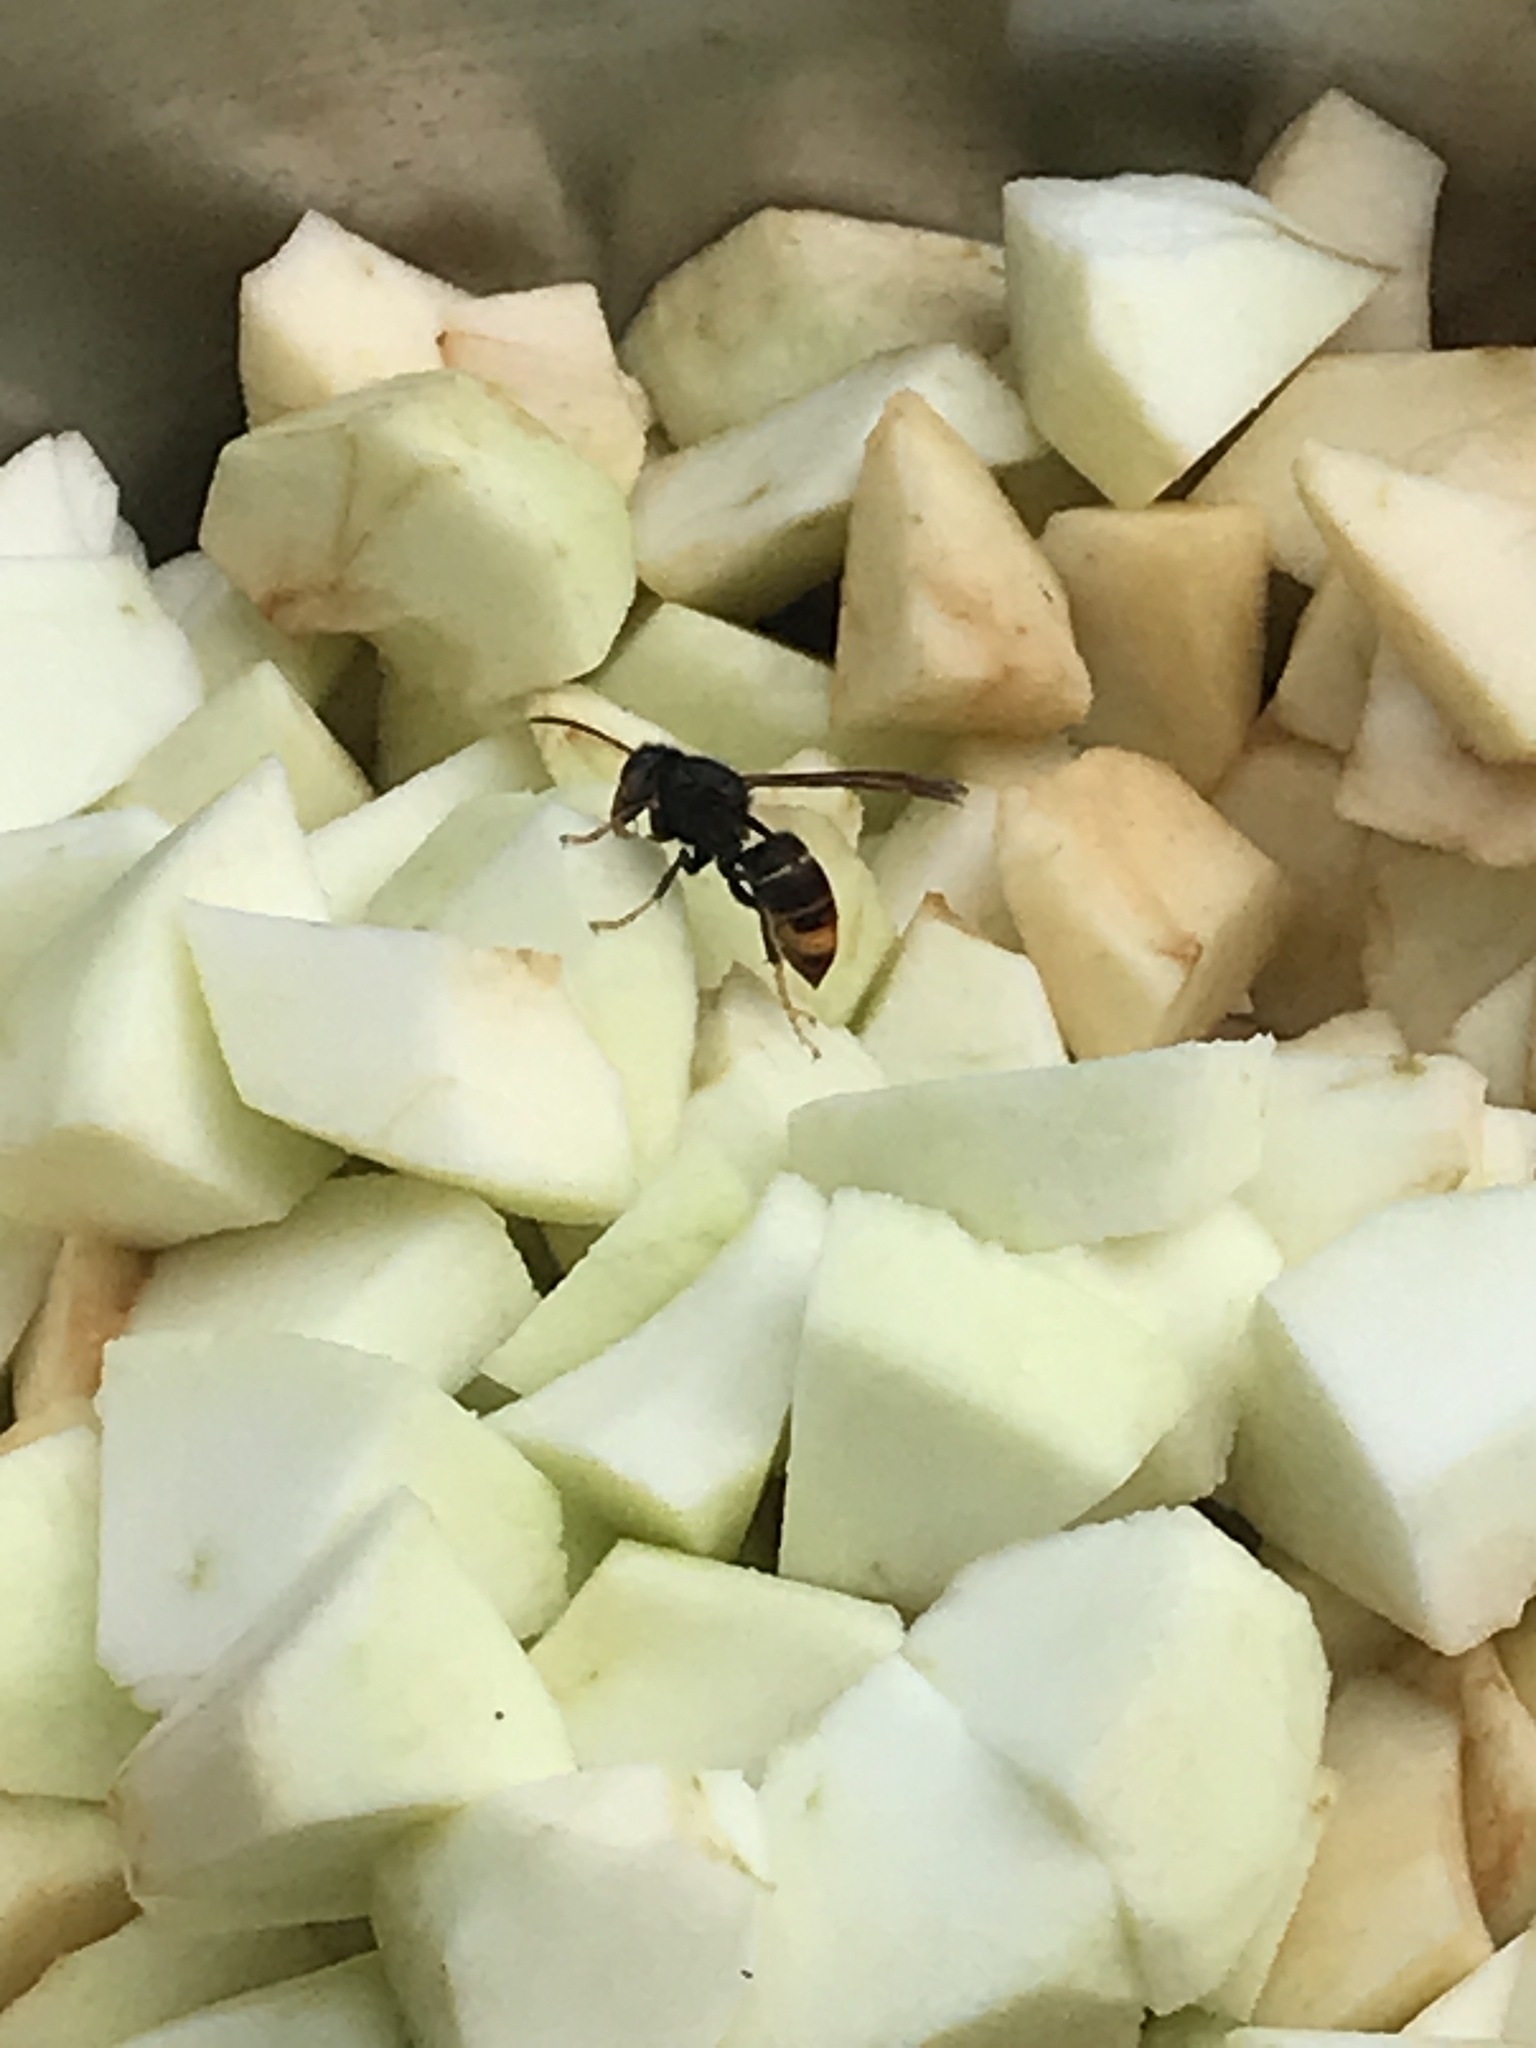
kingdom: Animalia
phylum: Arthropoda
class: Insecta
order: Hymenoptera
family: Vespidae
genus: Vespa
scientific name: Vespa velutina
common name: Asian hornet
